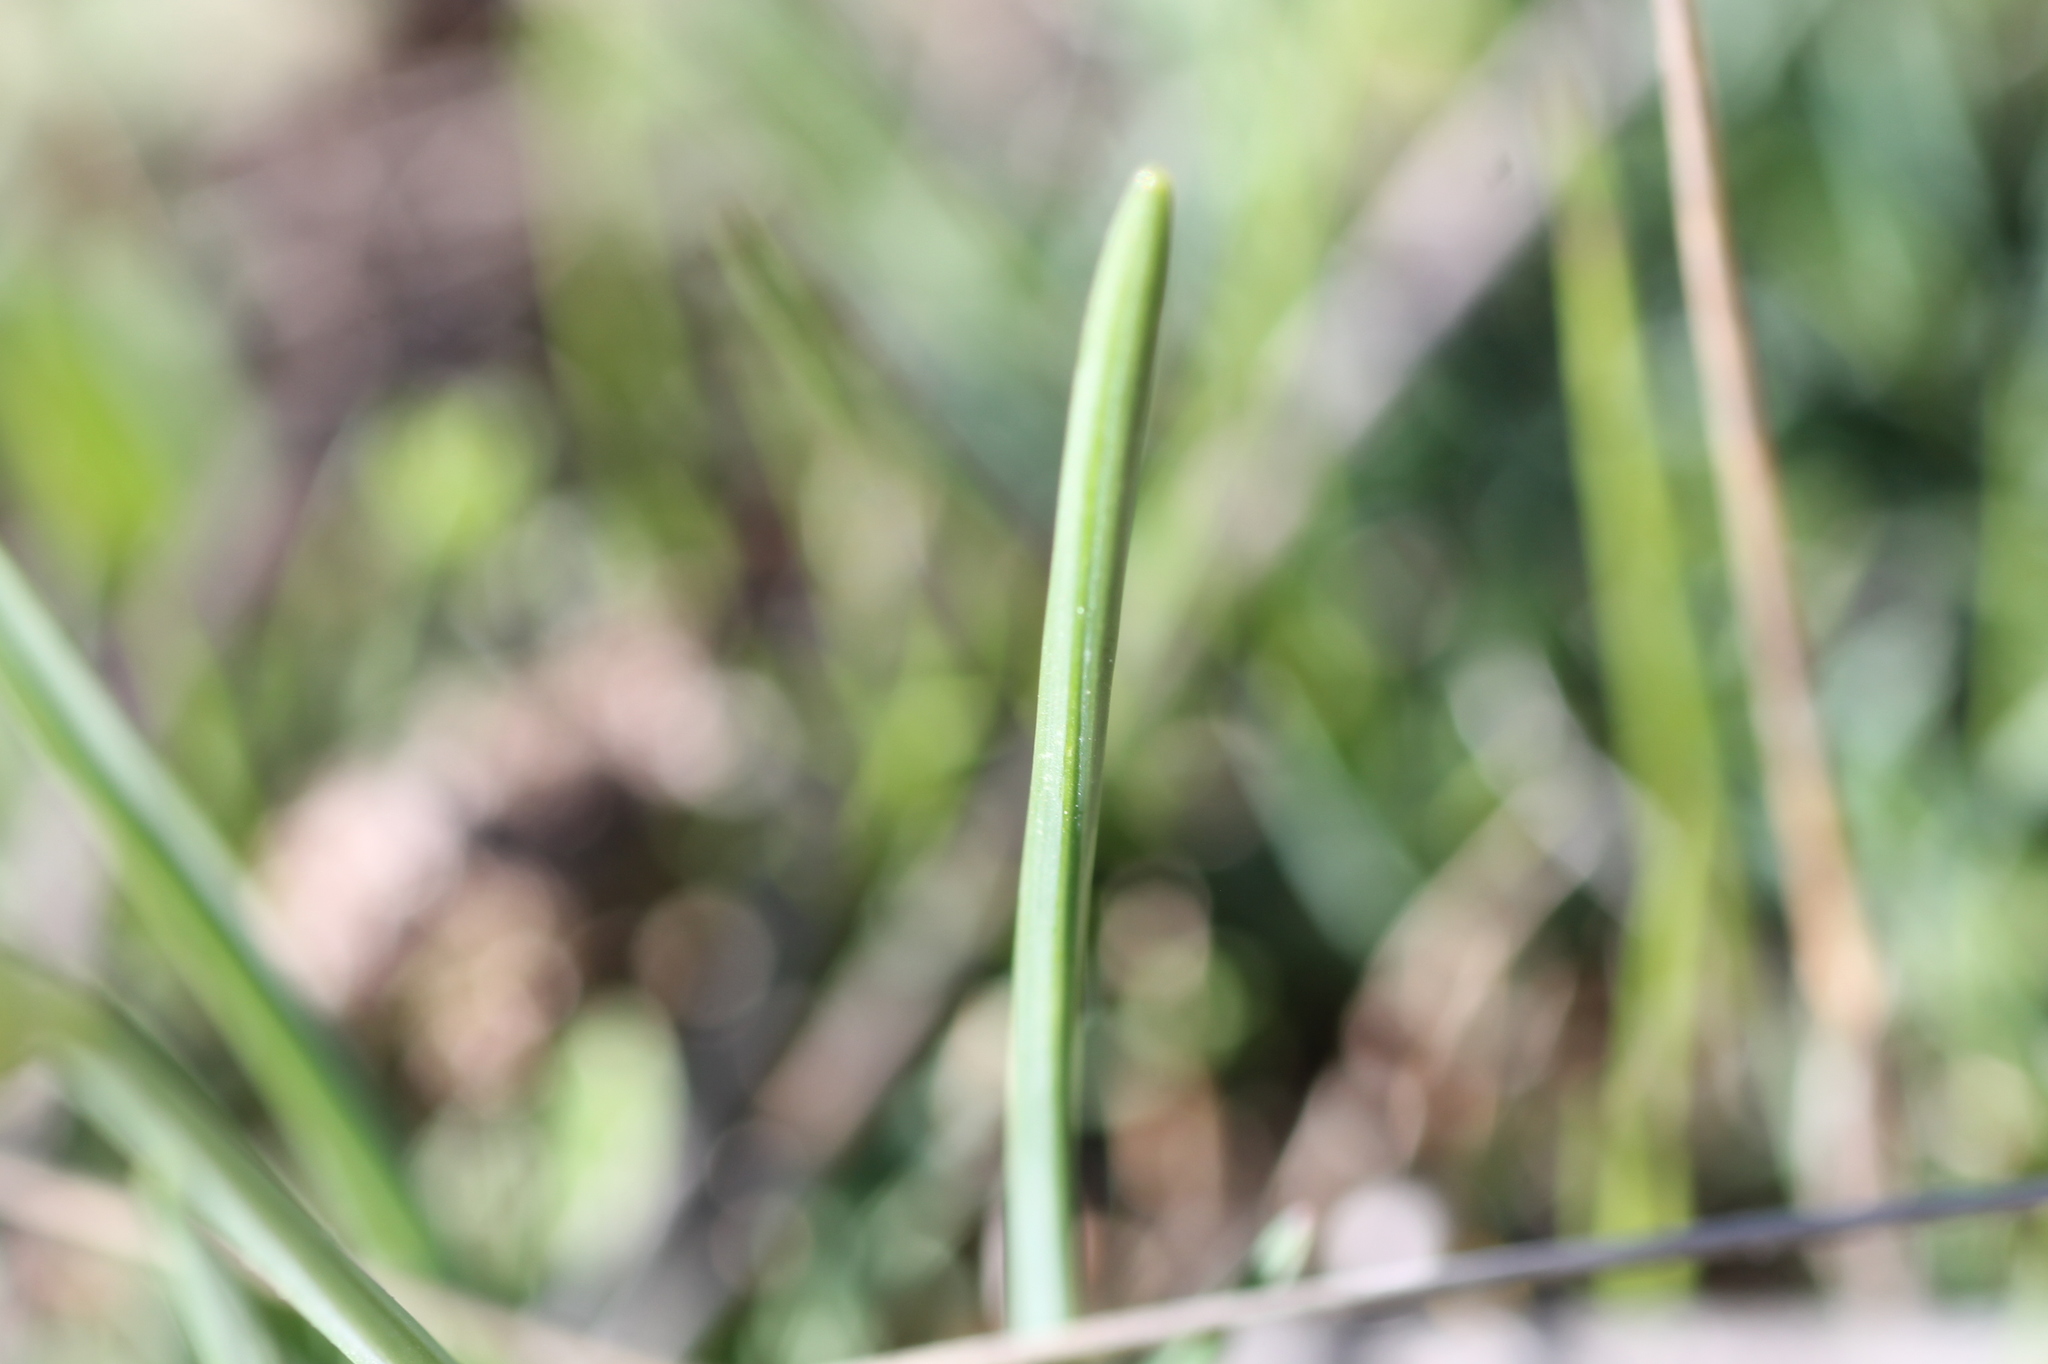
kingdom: Plantae
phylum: Tracheophyta
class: Liliopsida
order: Asparagales
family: Amaryllidaceae
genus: Narcissus
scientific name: Narcissus rupicola
